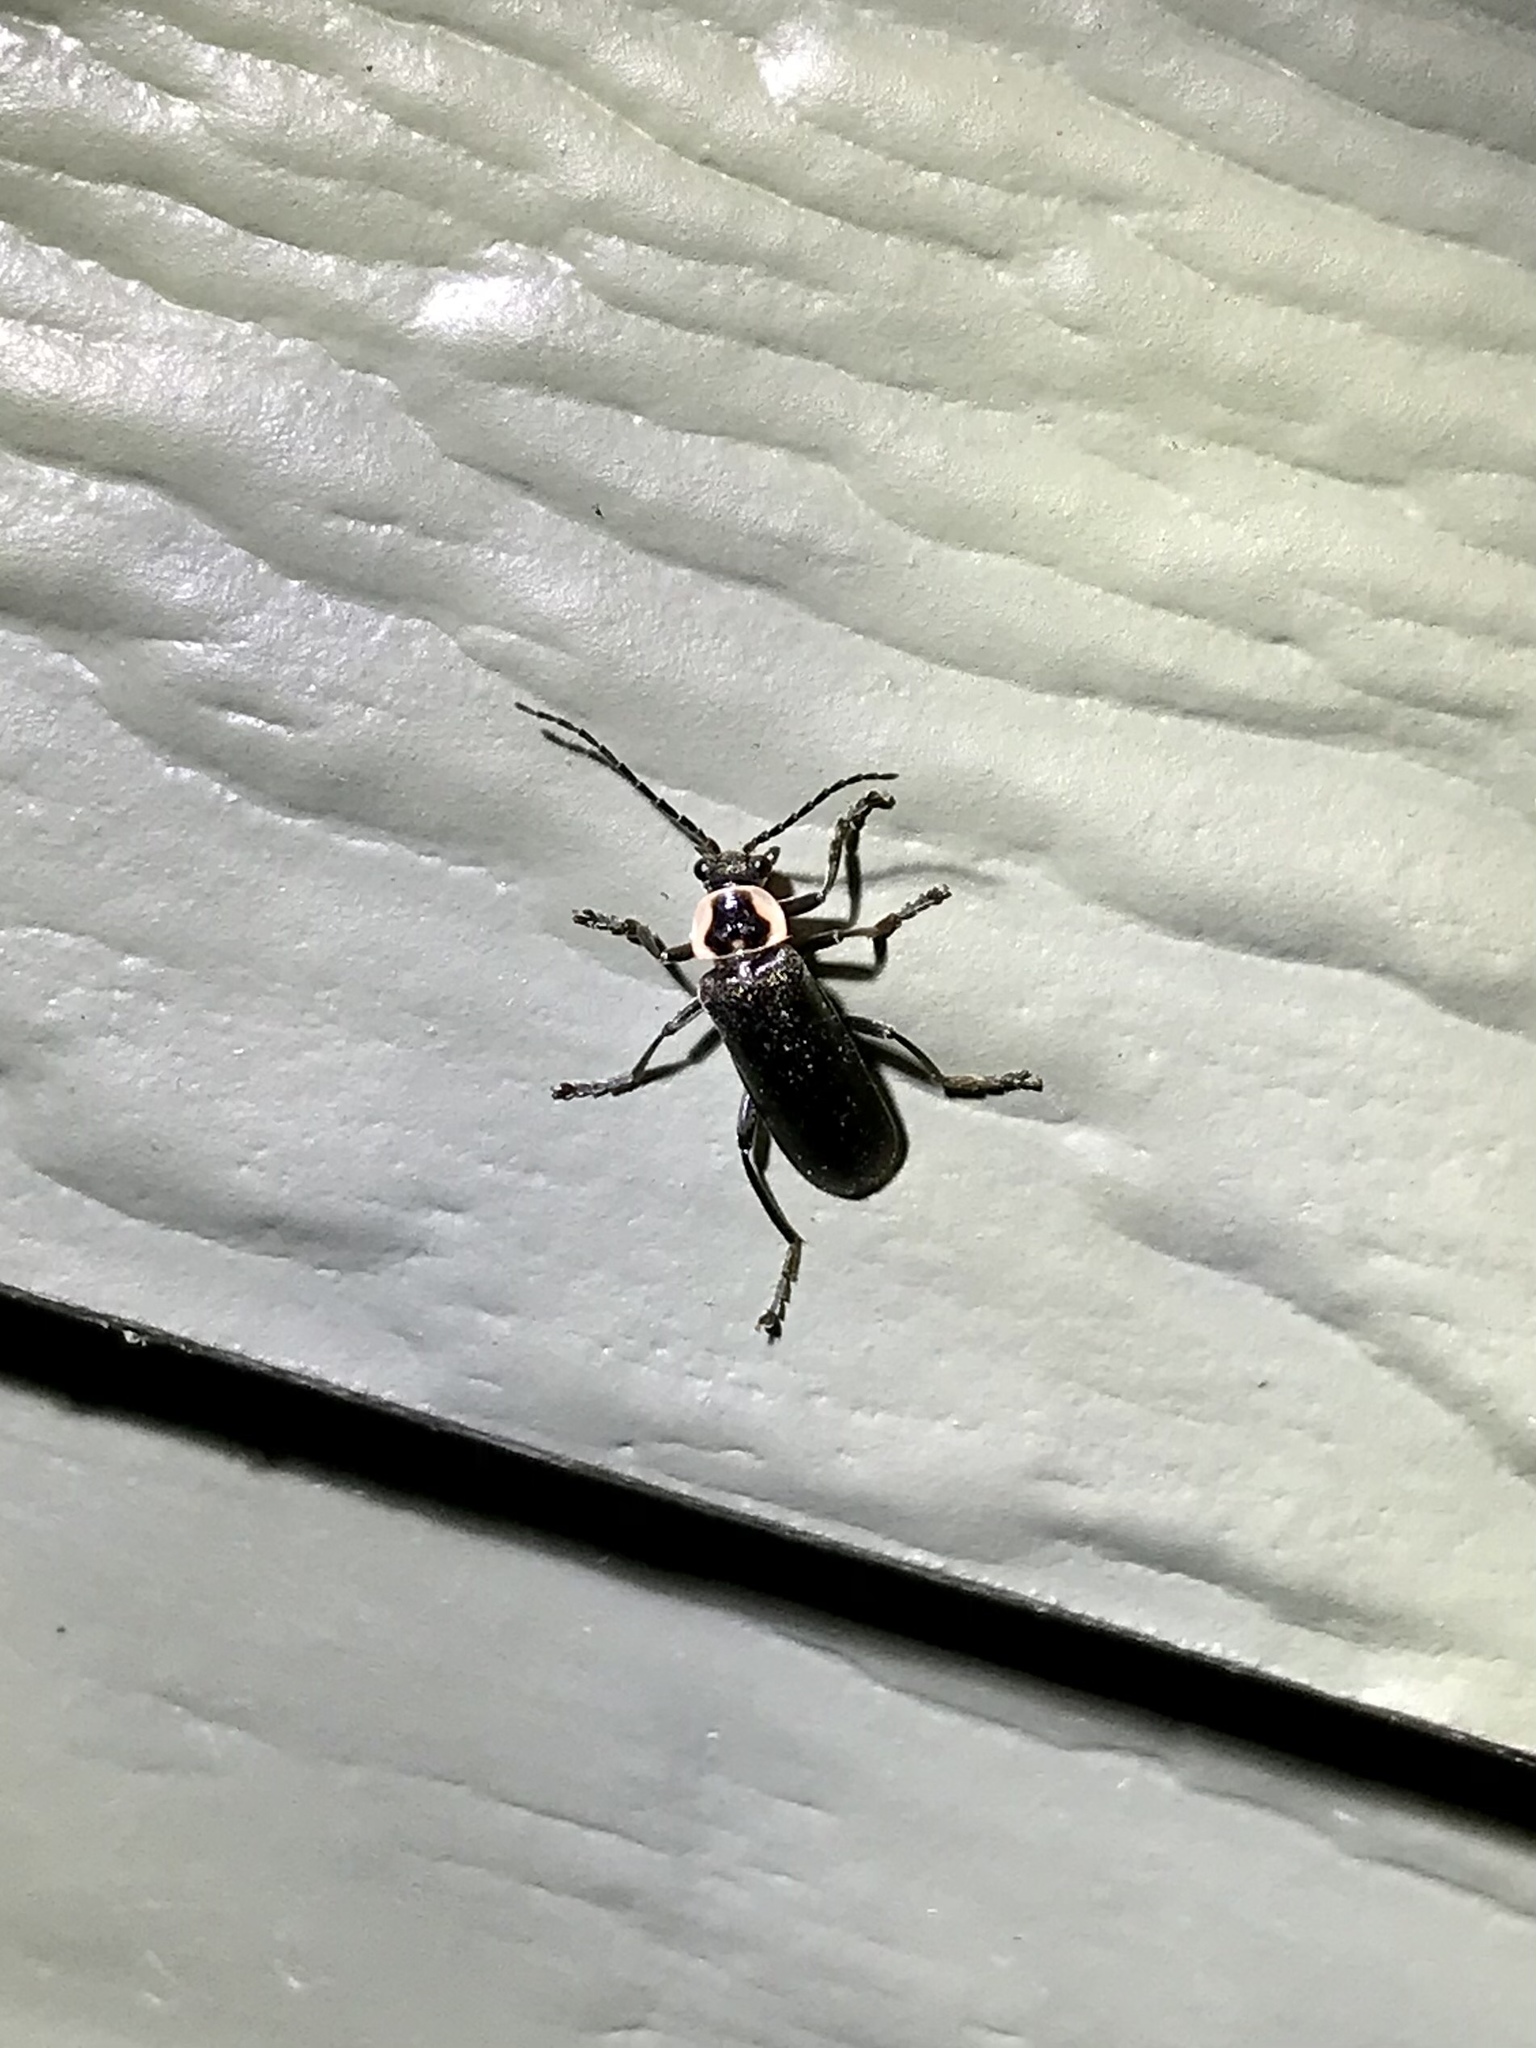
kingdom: Animalia
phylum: Arthropoda
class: Insecta
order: Coleoptera
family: Cantharidae
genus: Atalantycha
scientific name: Atalantycha neglecta
